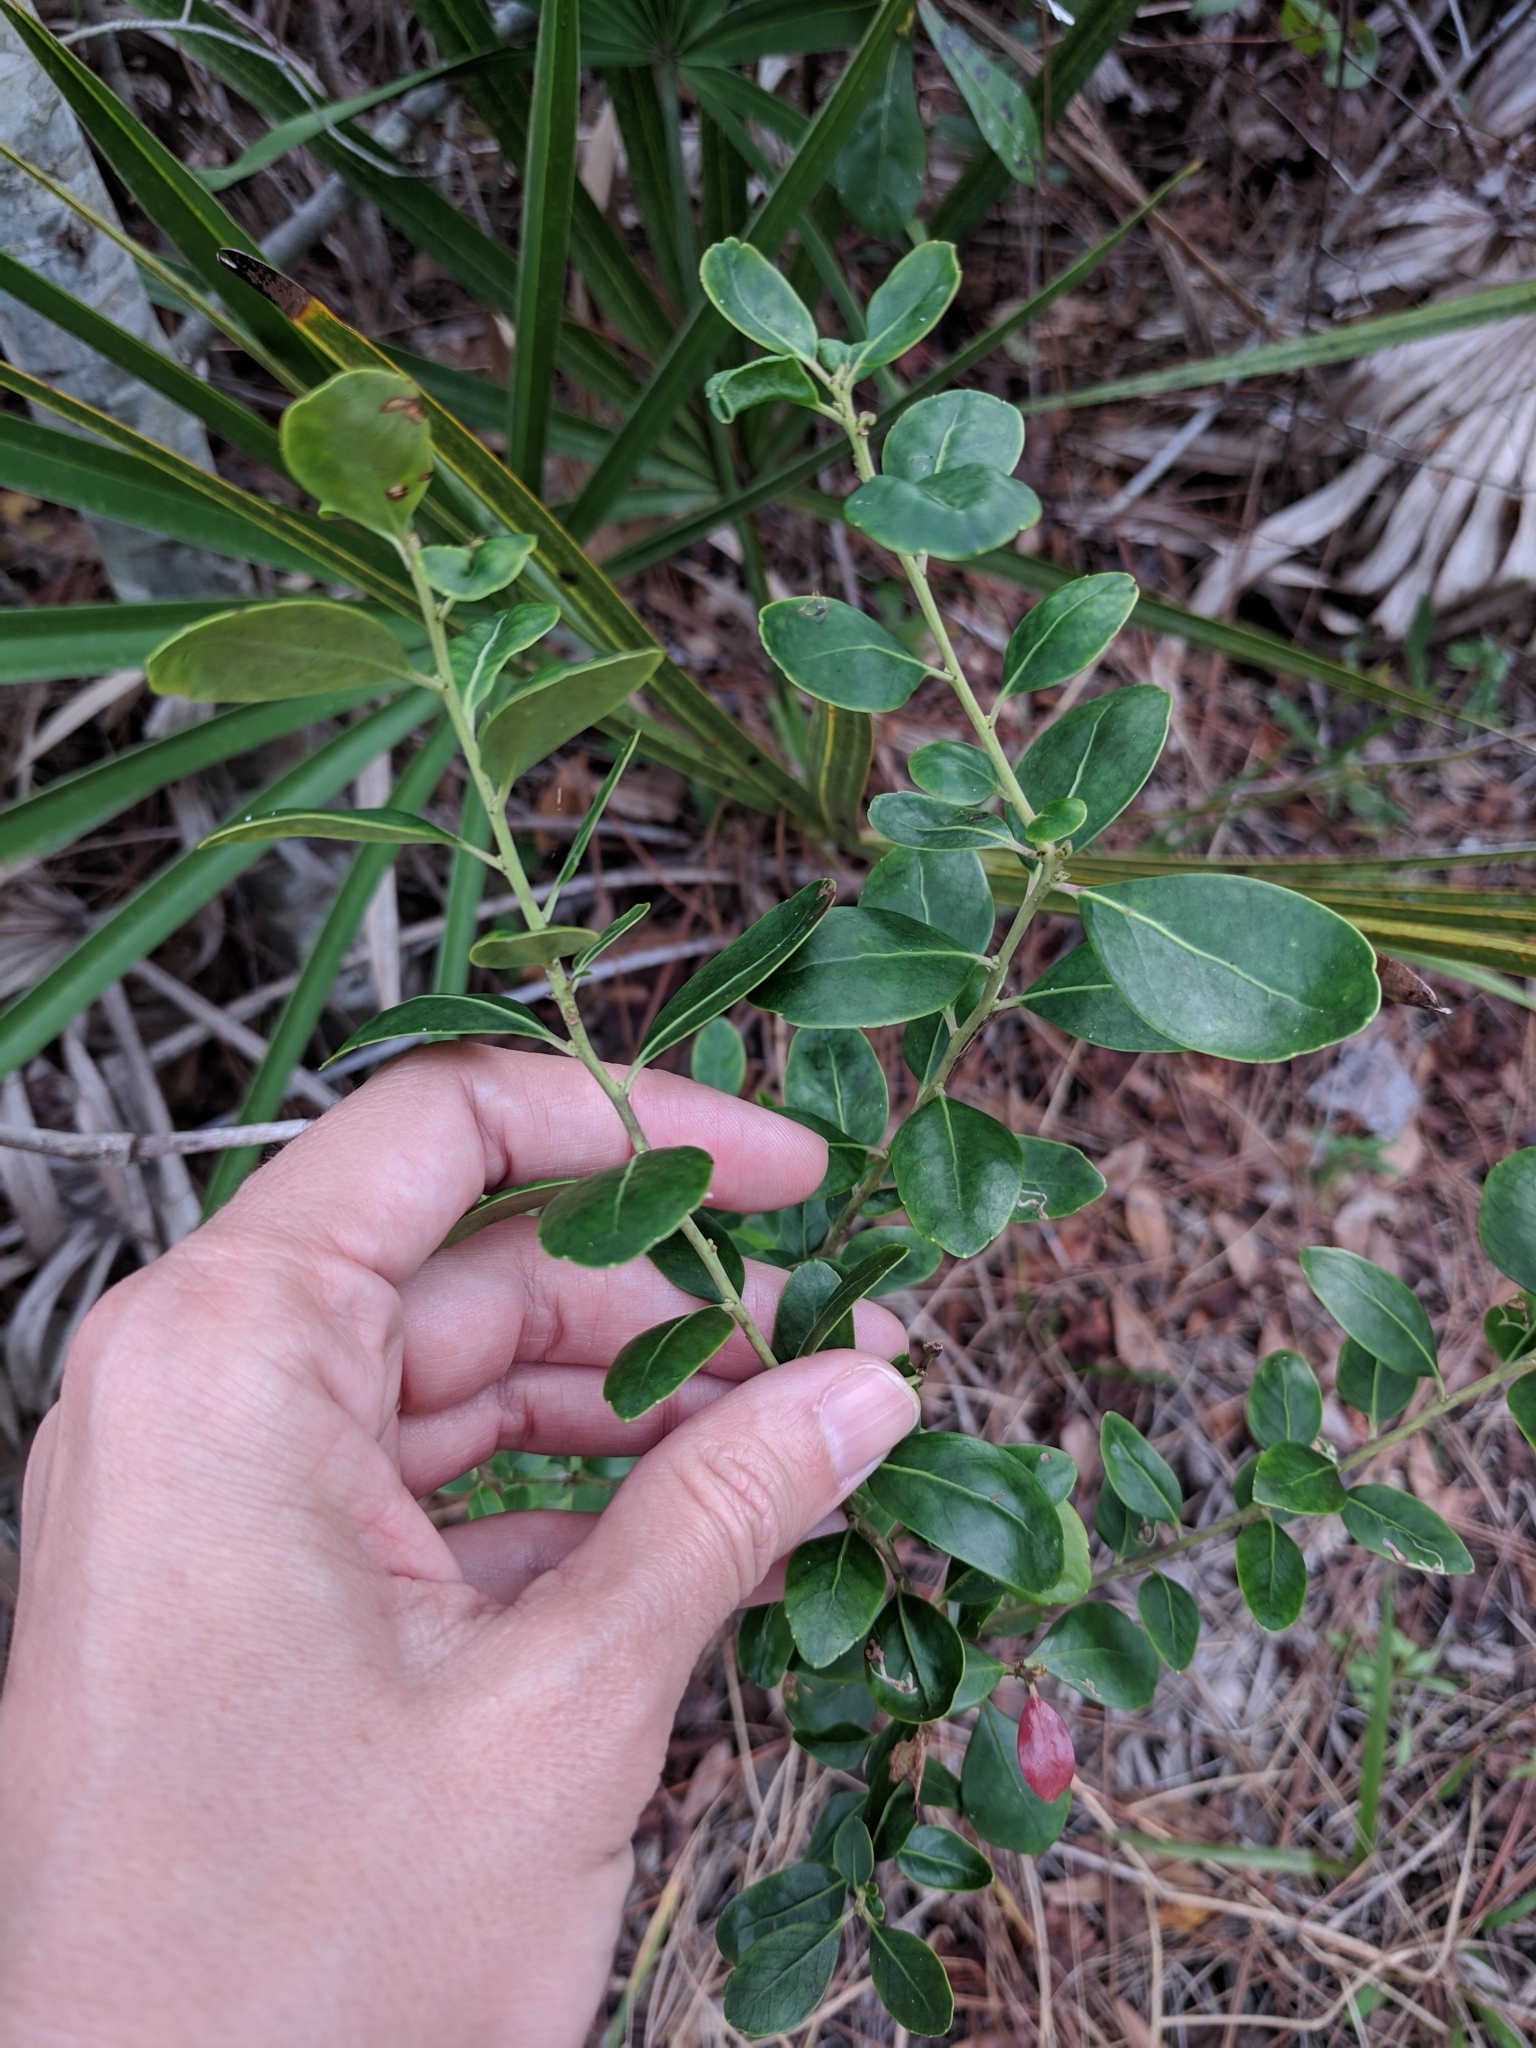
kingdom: Plantae
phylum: Tracheophyta
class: Magnoliopsida
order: Aquifoliales
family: Aquifoliaceae
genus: Ilex
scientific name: Ilex glabra
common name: Bitter gallberry
